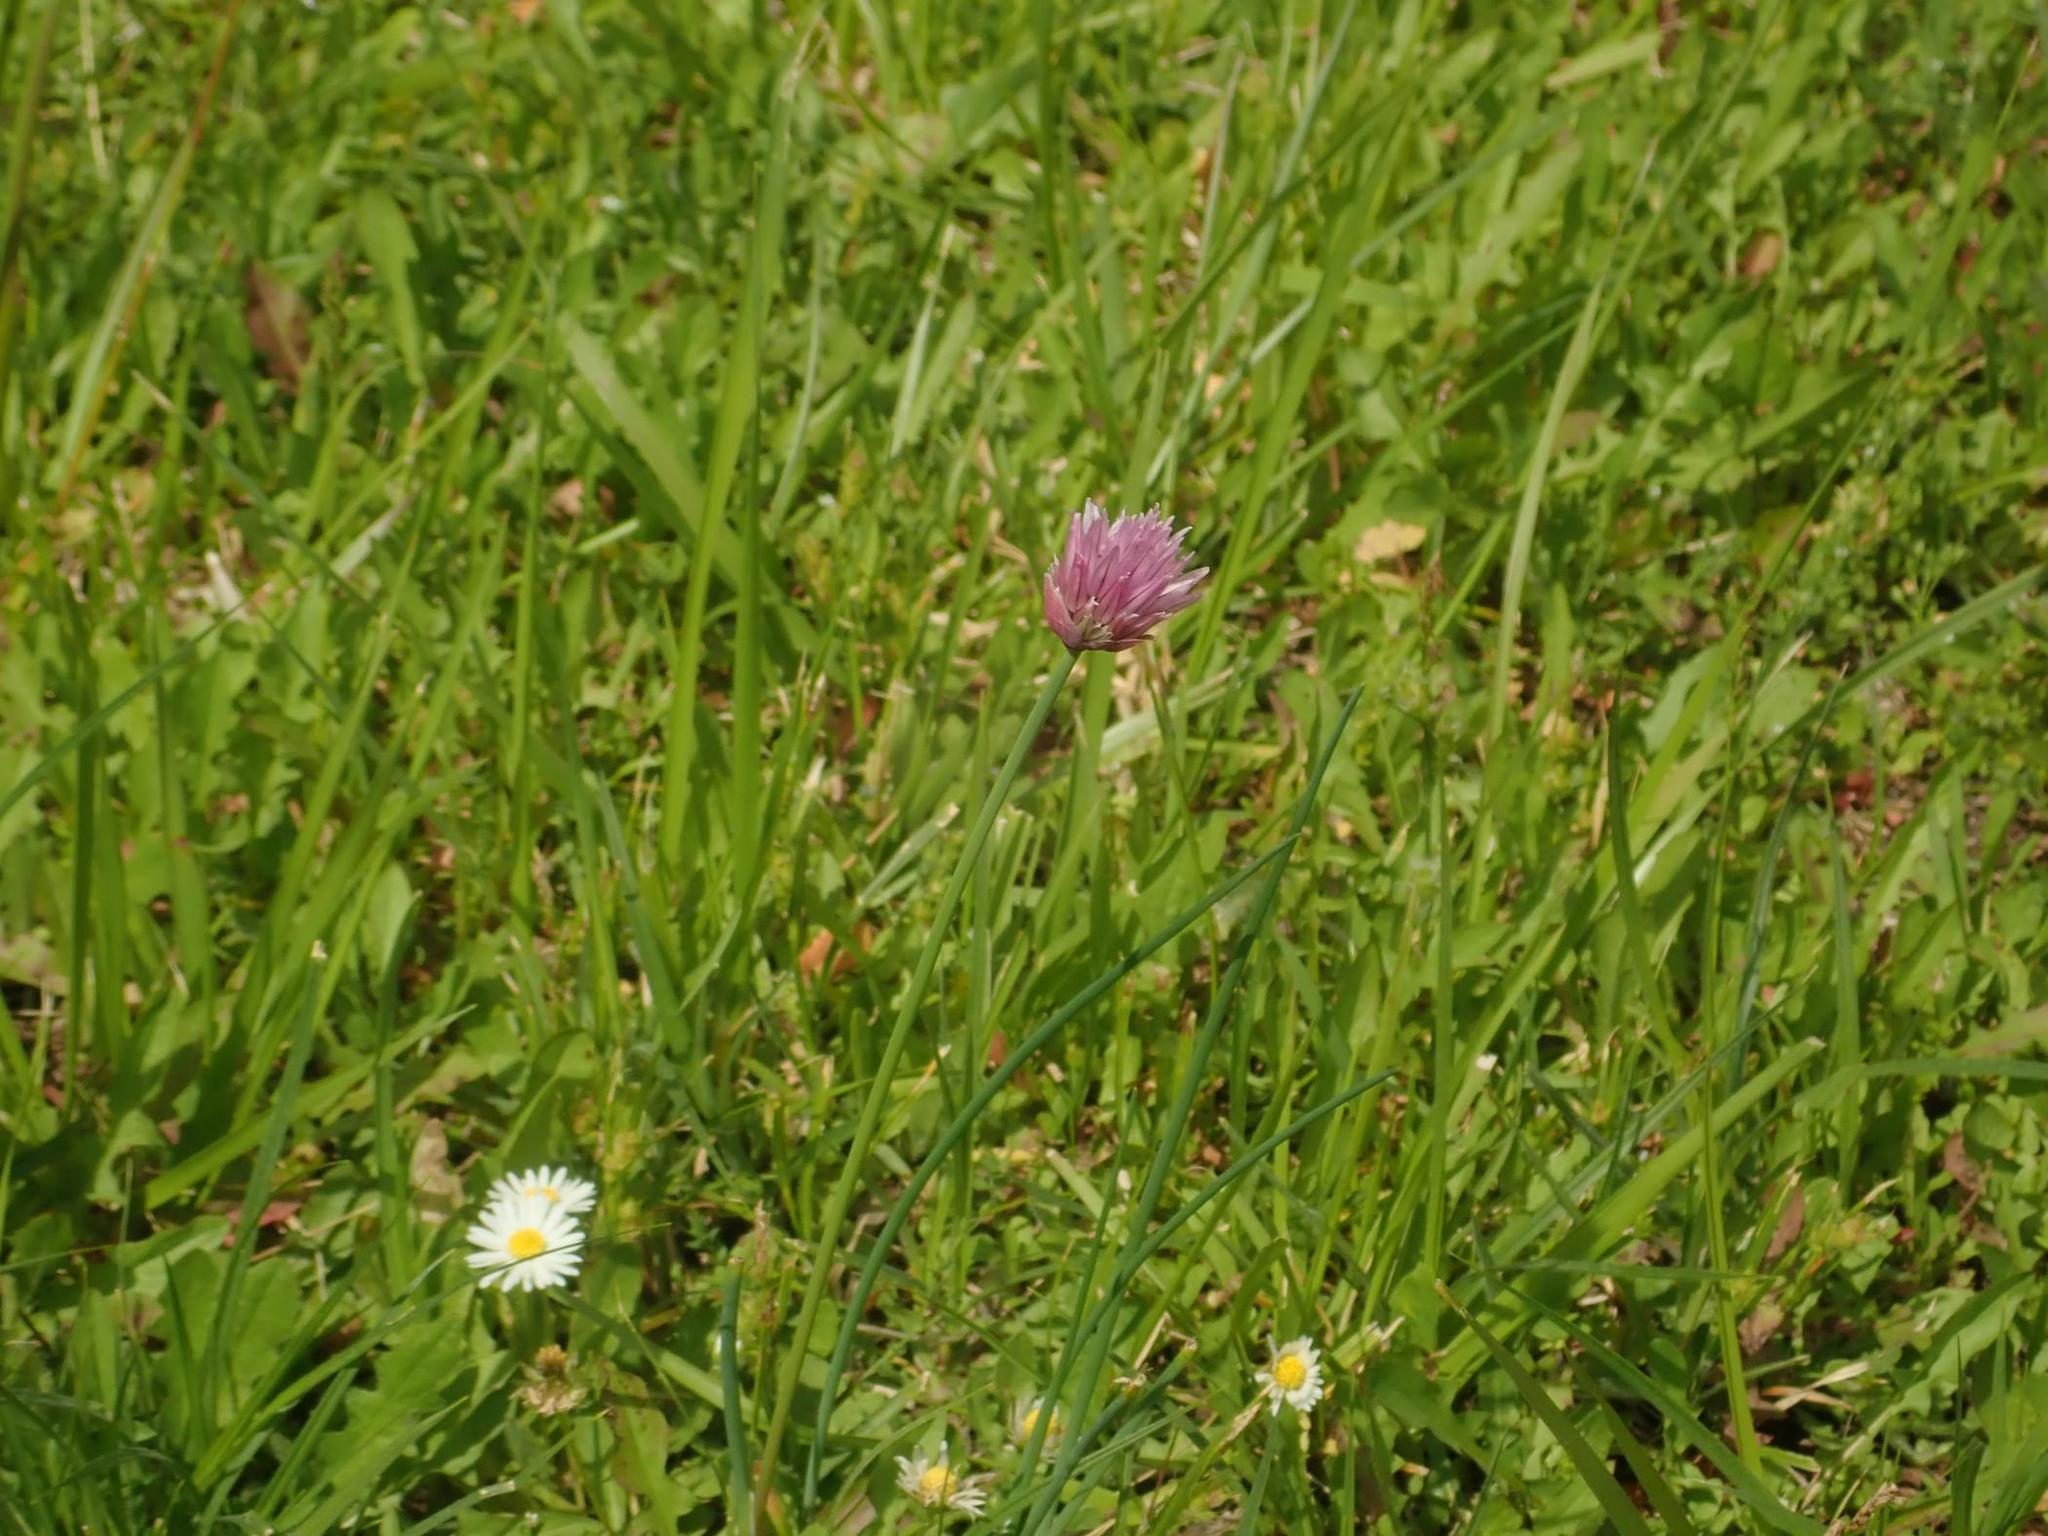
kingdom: Plantae
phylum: Tracheophyta
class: Liliopsida
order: Asparagales
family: Amaryllidaceae
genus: Allium
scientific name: Allium schoenoprasum
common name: Chives
